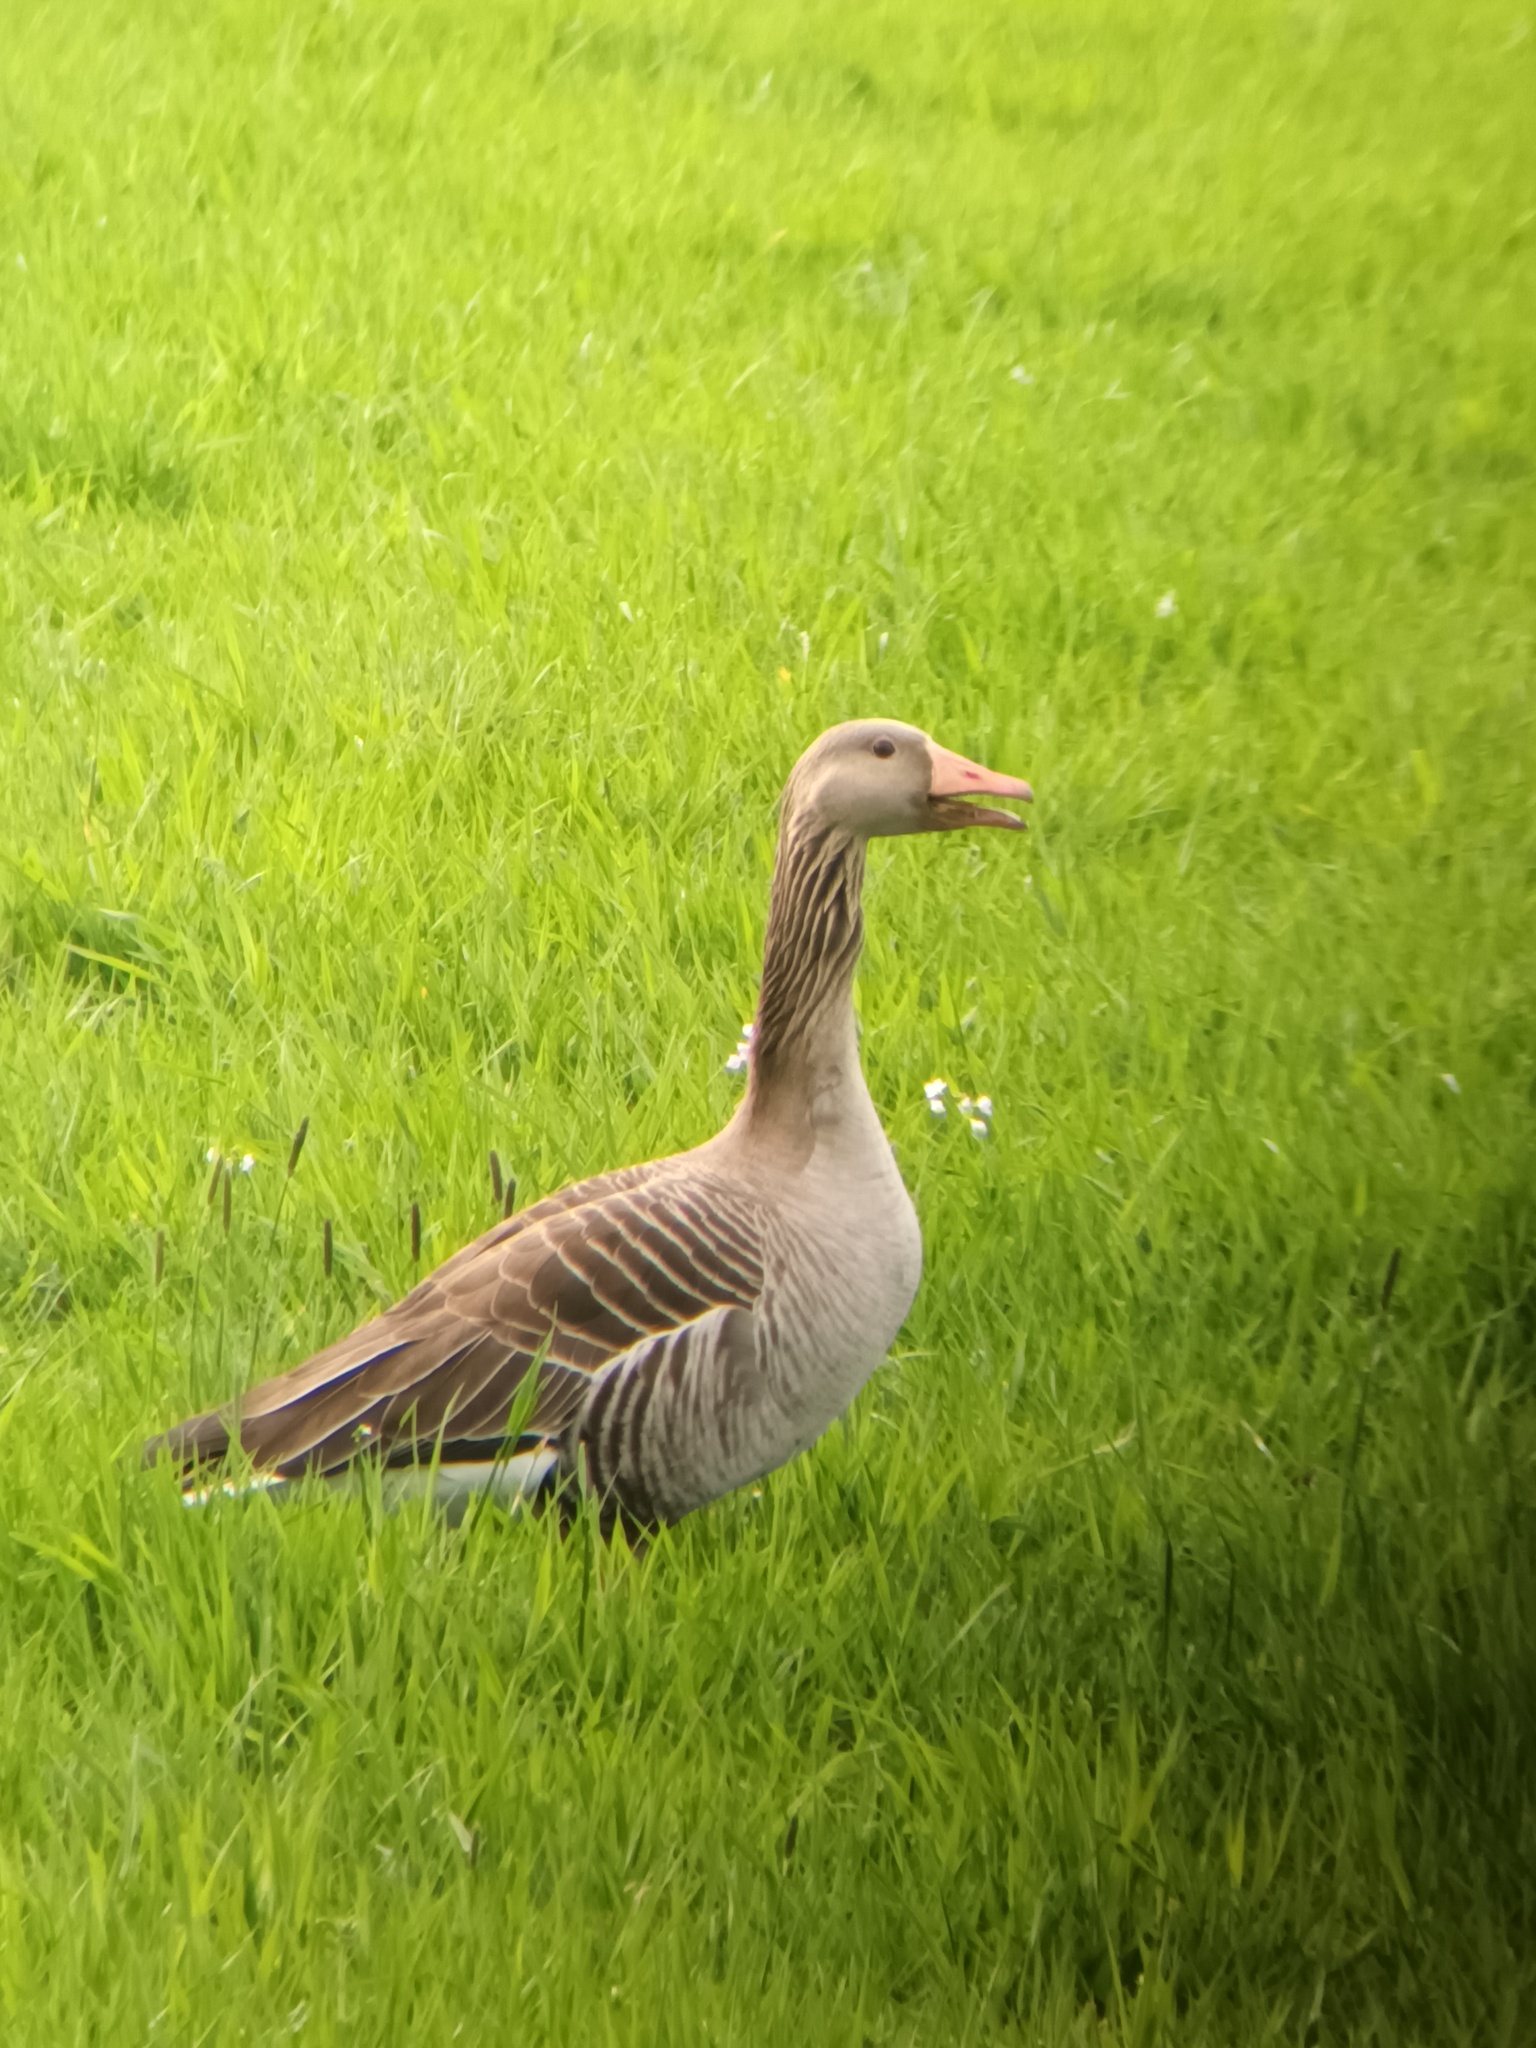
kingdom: Animalia
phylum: Chordata
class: Aves
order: Anseriformes
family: Anatidae
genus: Anser
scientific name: Anser anser
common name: Greylag goose
